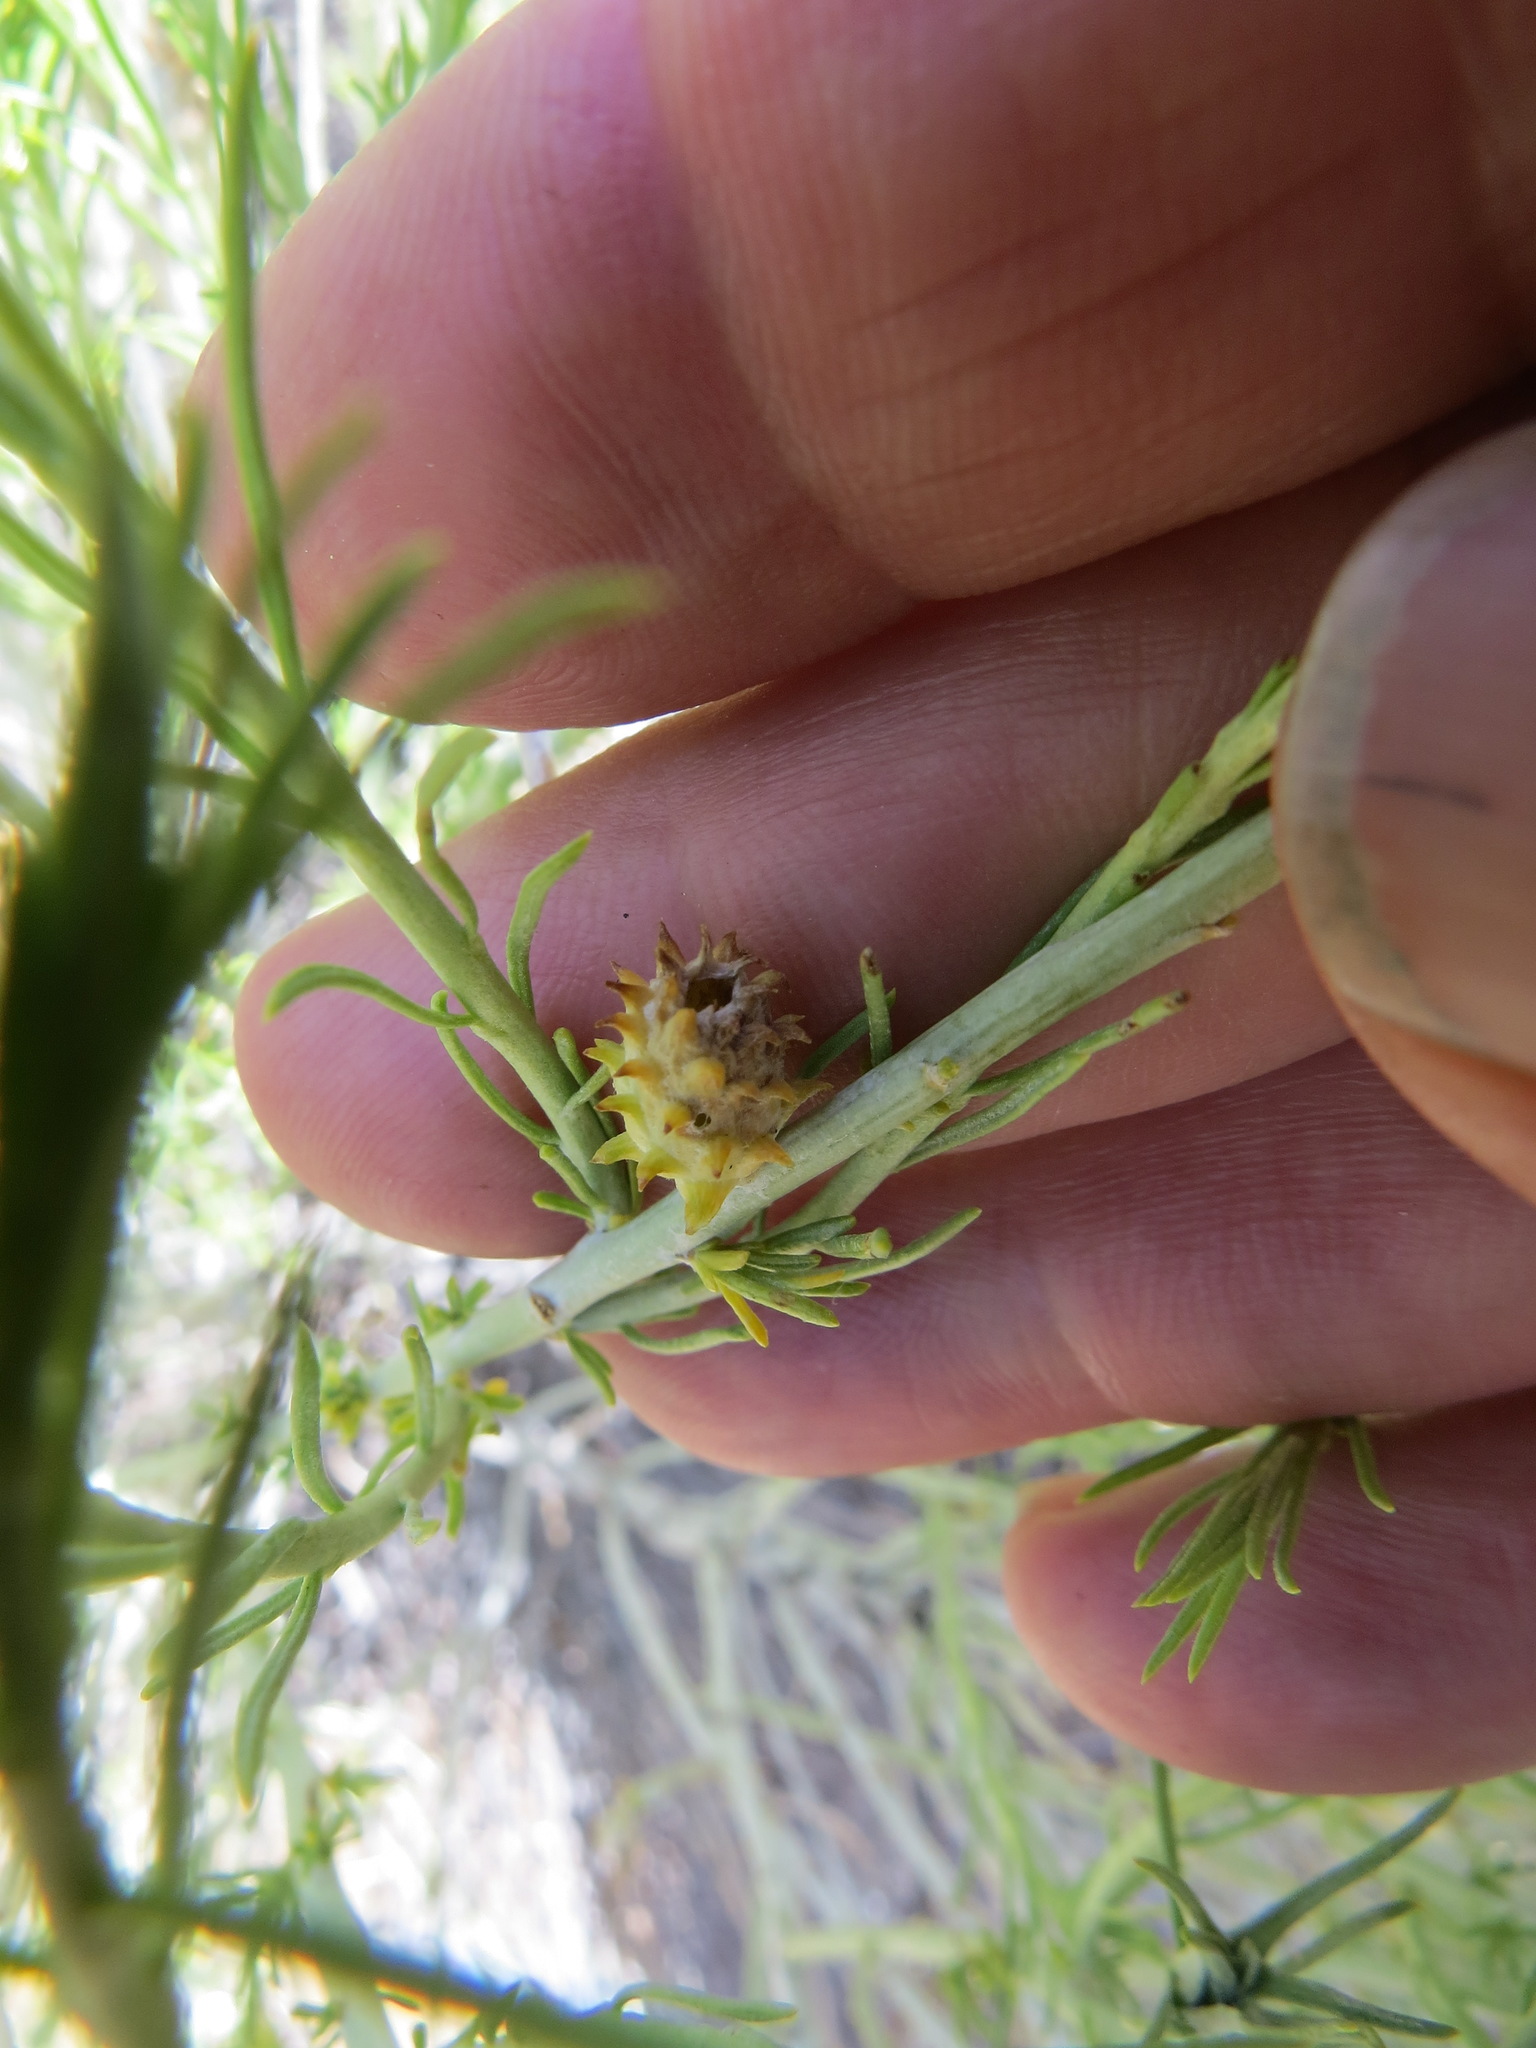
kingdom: Animalia
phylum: Arthropoda
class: Insecta
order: Diptera
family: Cecidomyiidae
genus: Rhopalomyia
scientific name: Rhopalomyia utahensis
